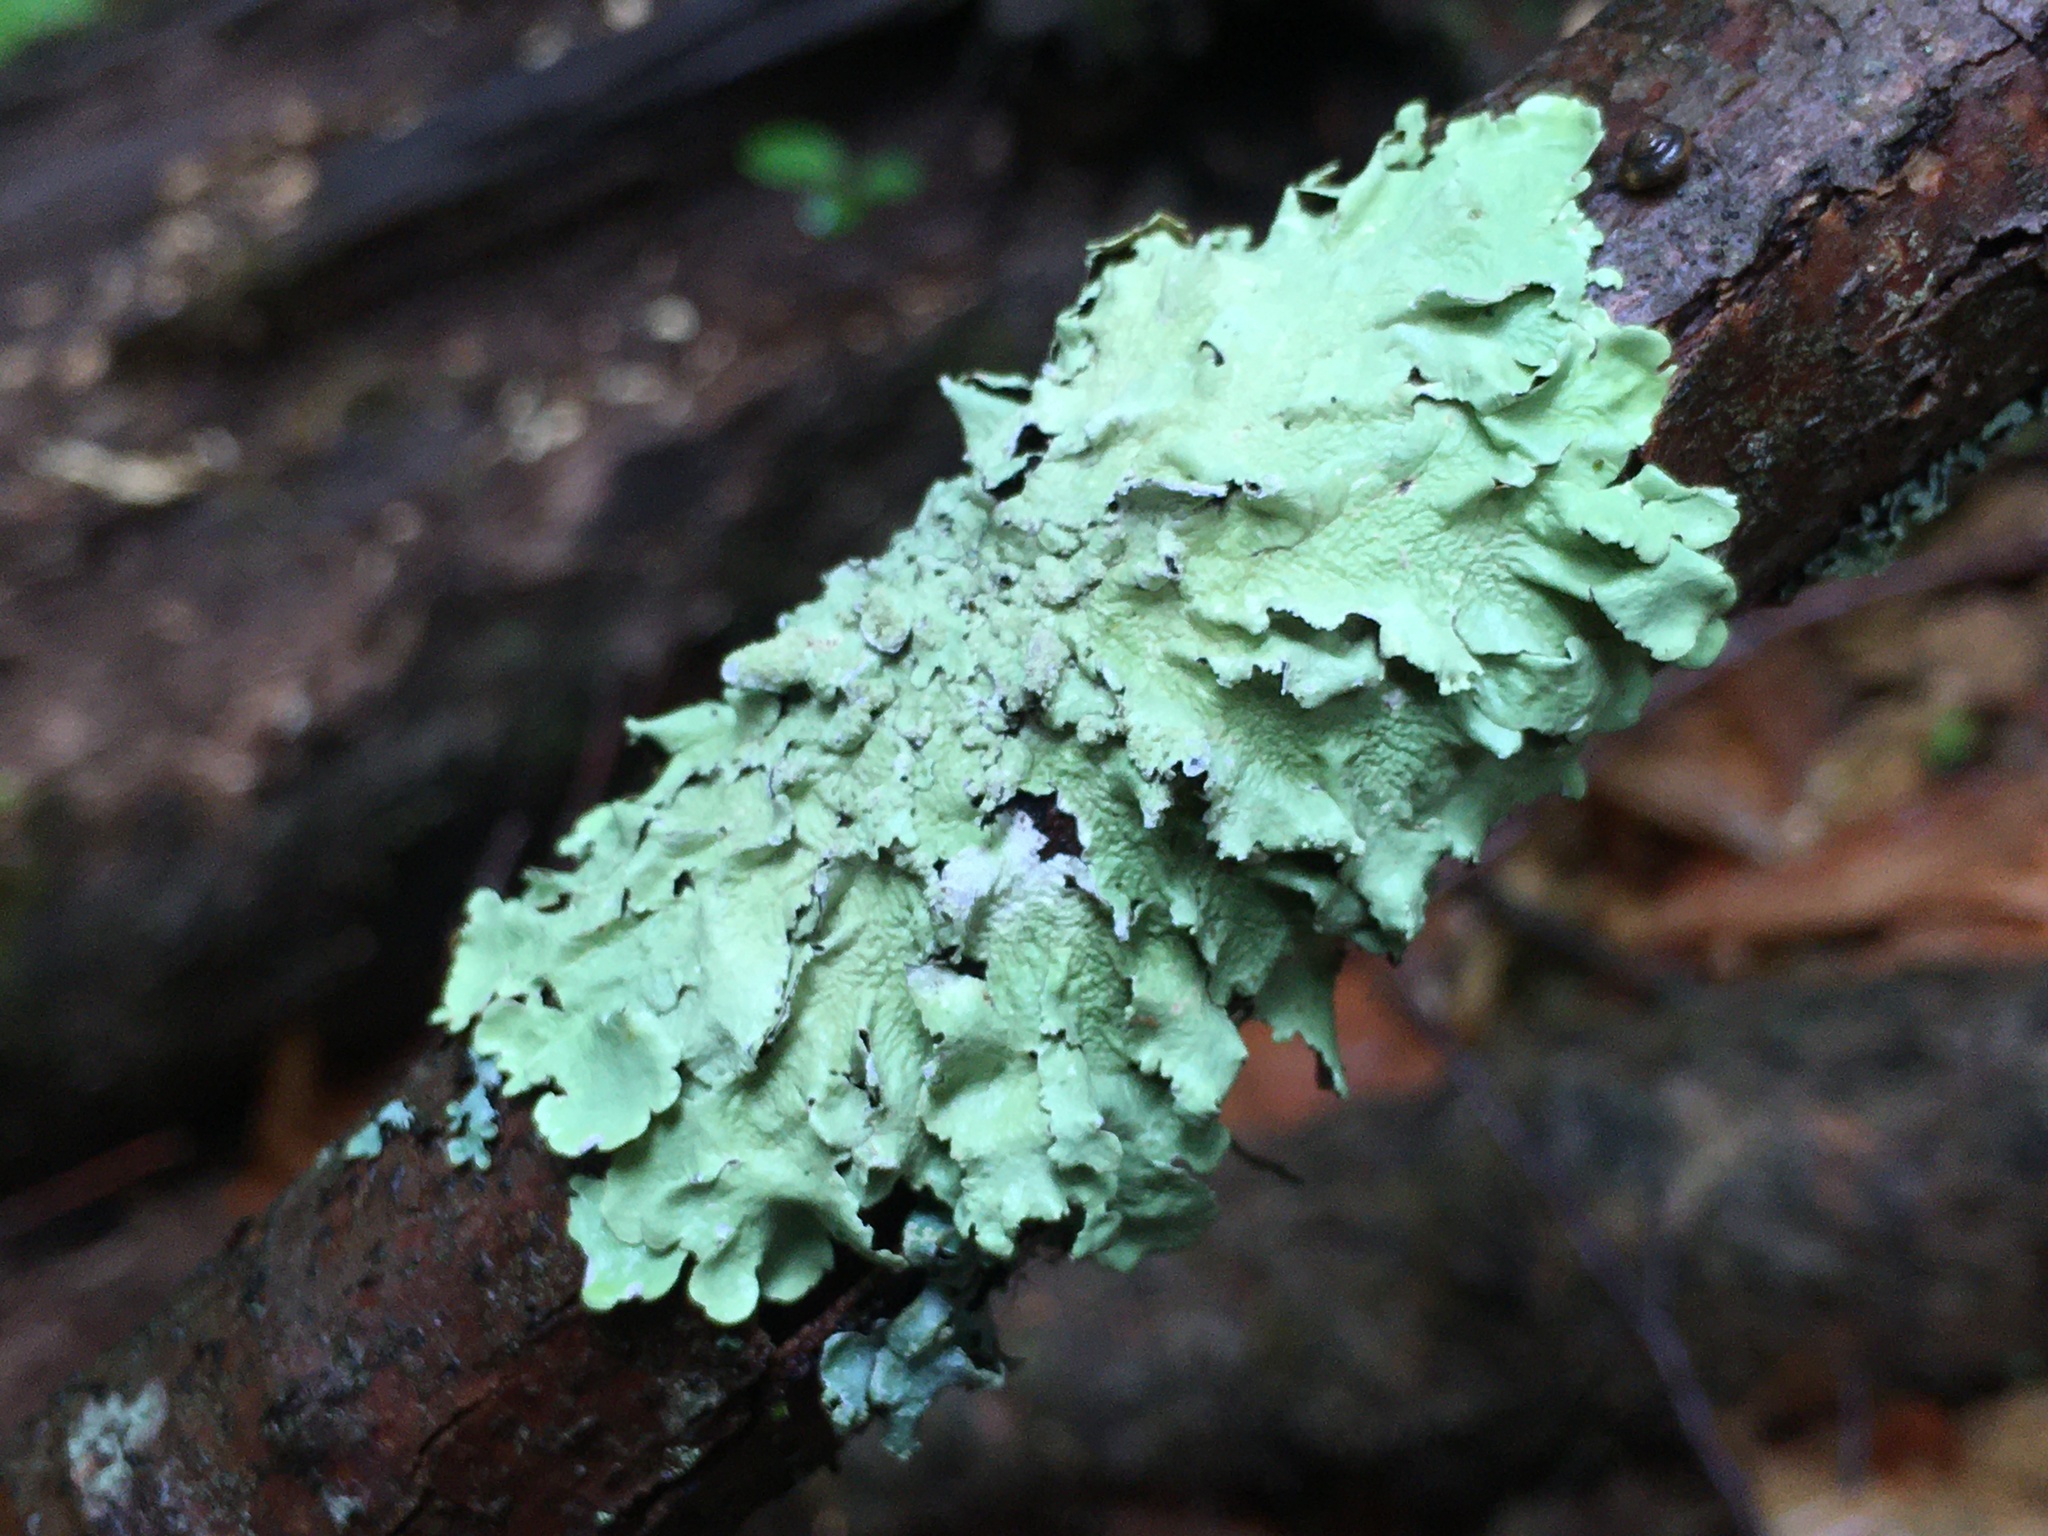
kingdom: Fungi
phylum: Ascomycota
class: Lecanoromycetes
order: Lecanorales
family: Parmeliaceae
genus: Flavoparmelia
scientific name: Flavoparmelia caperata
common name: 40-mile per hour lichen
